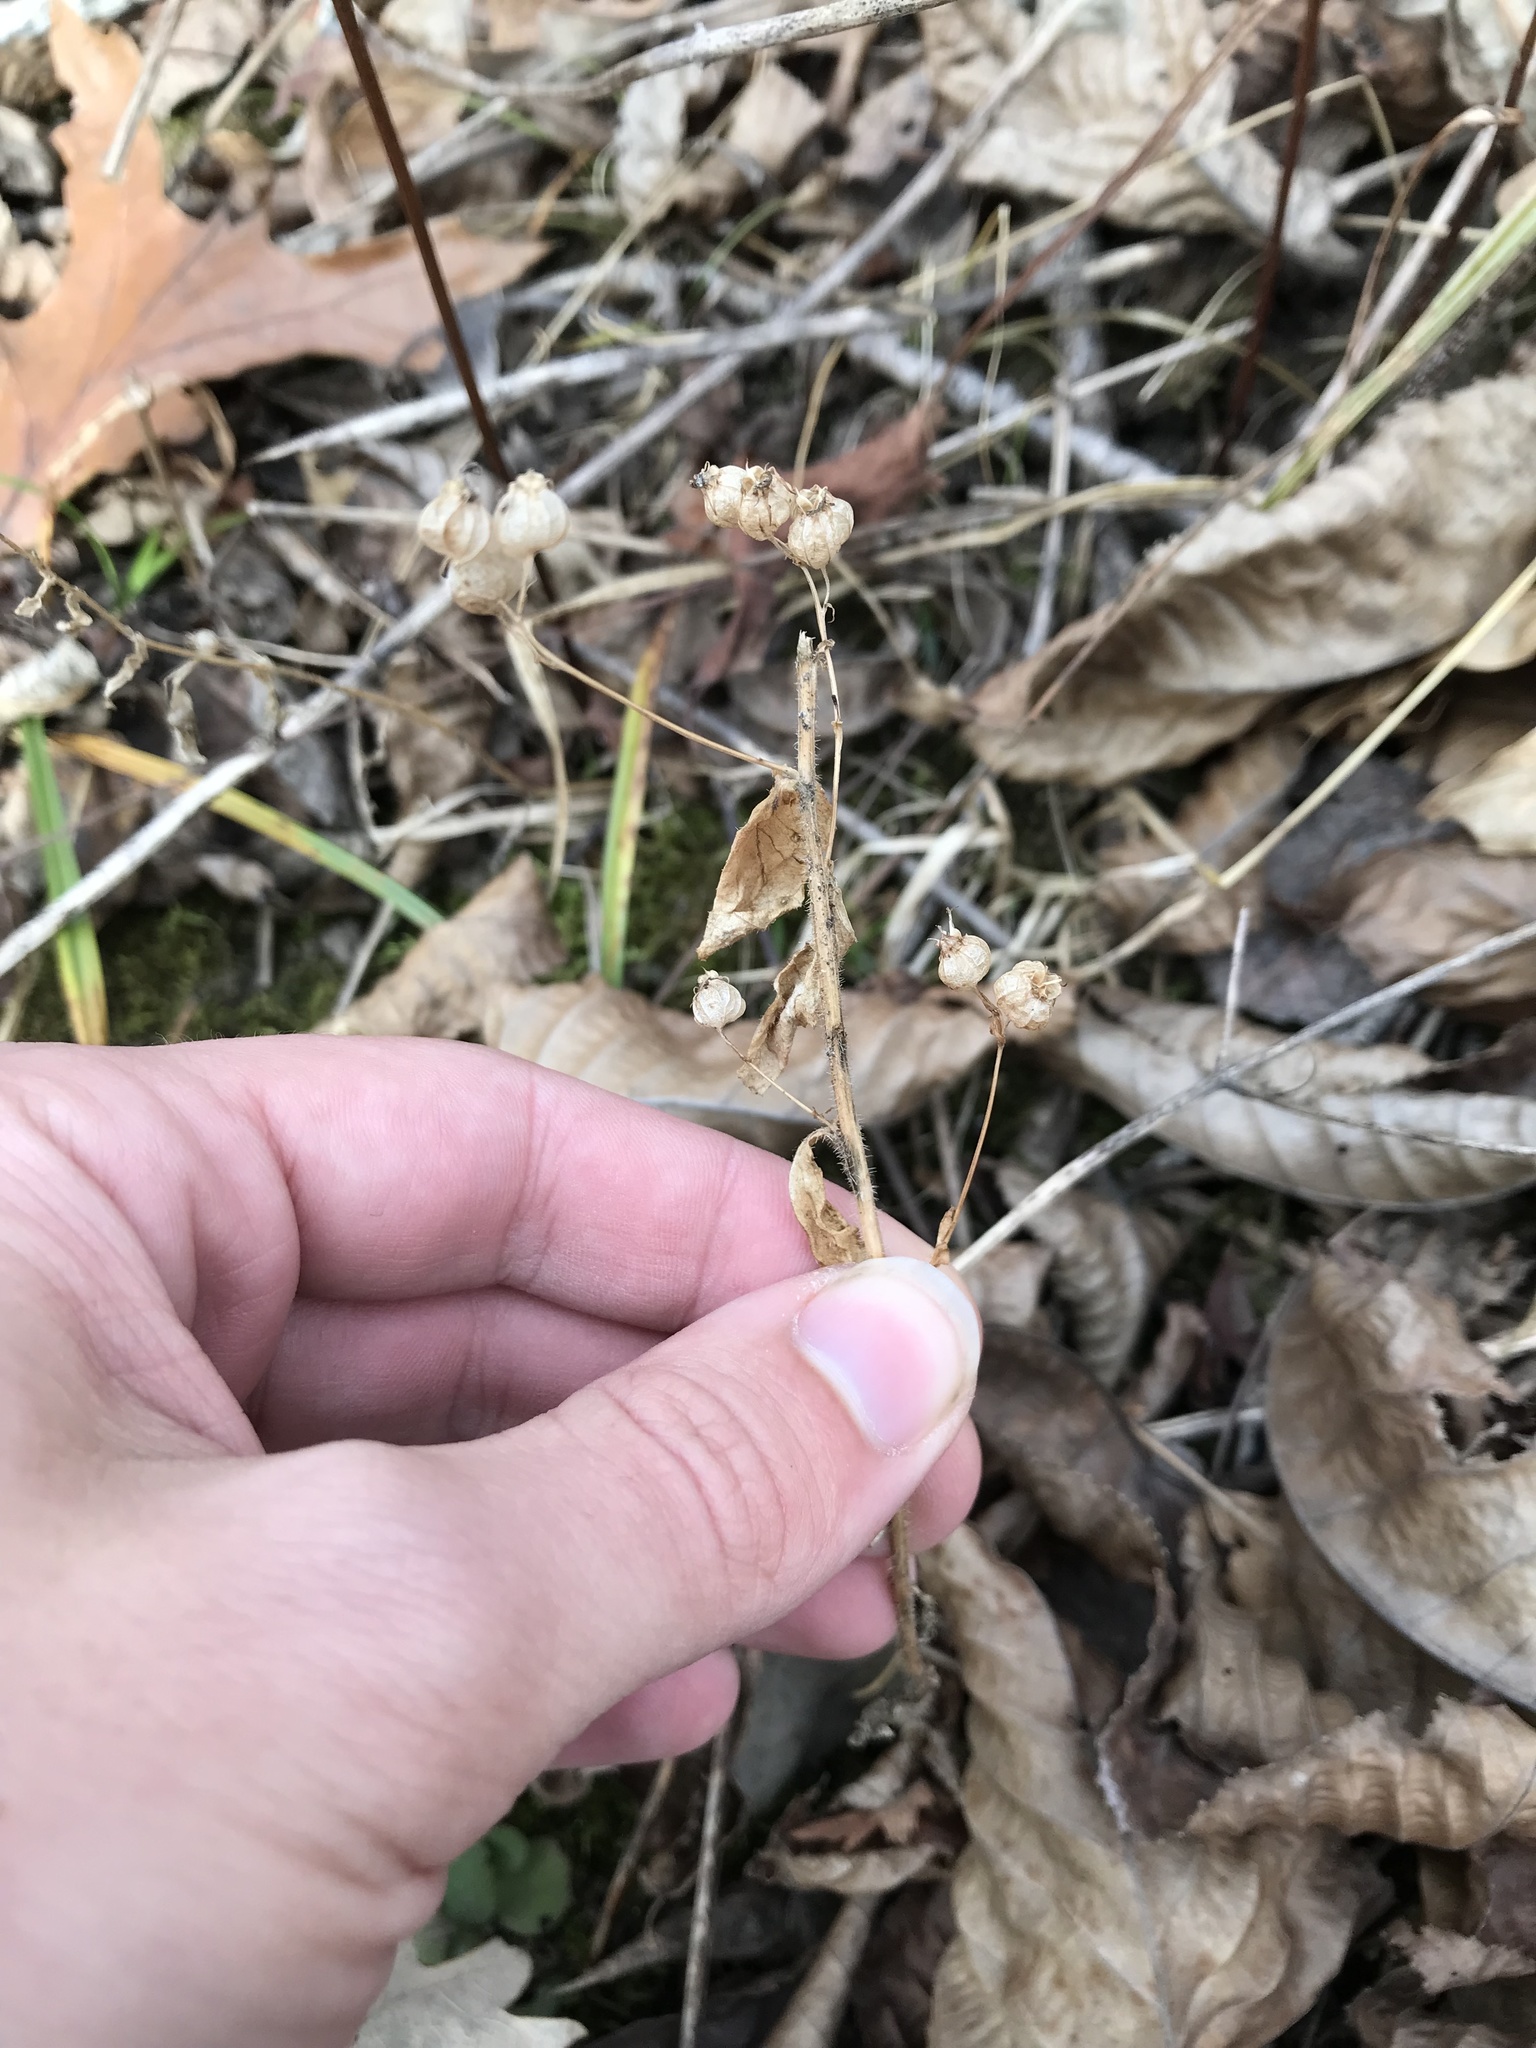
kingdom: Plantae
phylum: Tracheophyta
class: Magnoliopsida
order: Asterales
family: Campanulaceae
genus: Lobelia
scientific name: Lobelia inflata
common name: Indian tobacco
